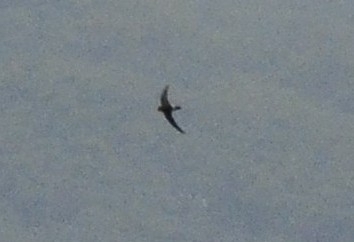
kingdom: Animalia
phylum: Chordata
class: Aves
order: Apodiformes
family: Apodidae
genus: Apus
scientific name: Apus affinis
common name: Little swift
